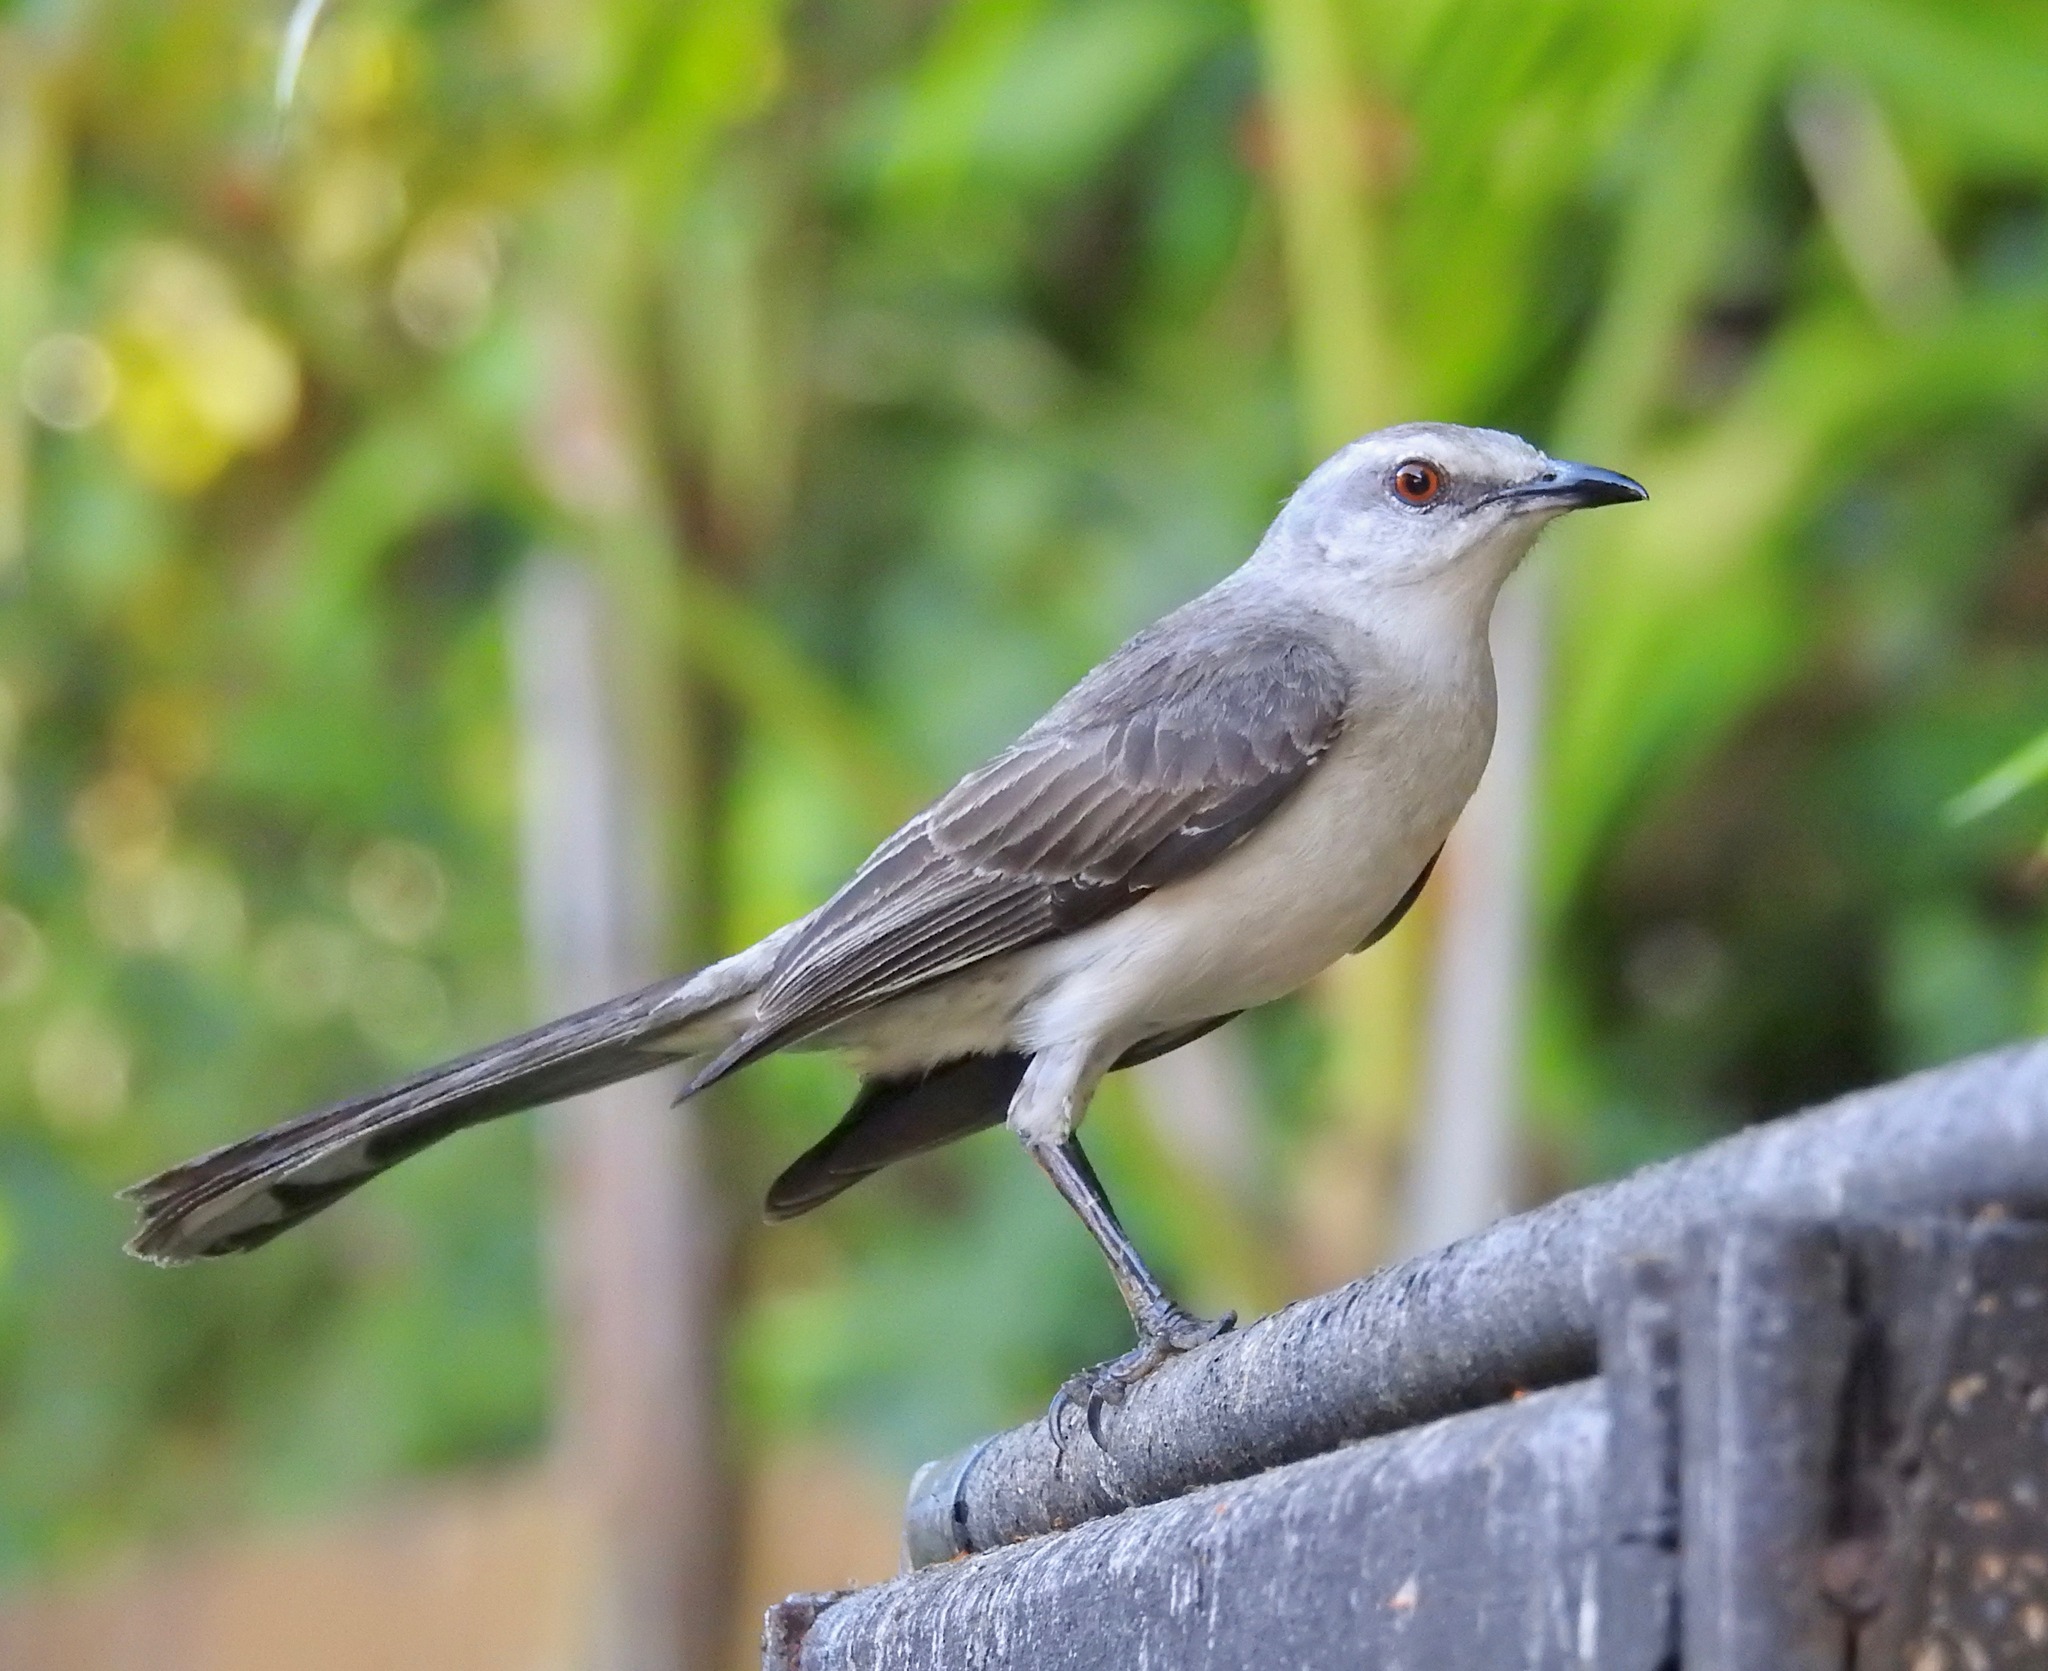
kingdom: Animalia
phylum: Chordata
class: Aves
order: Passeriformes
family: Mimidae
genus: Mimus
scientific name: Mimus gilvus
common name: Tropical mockingbird
